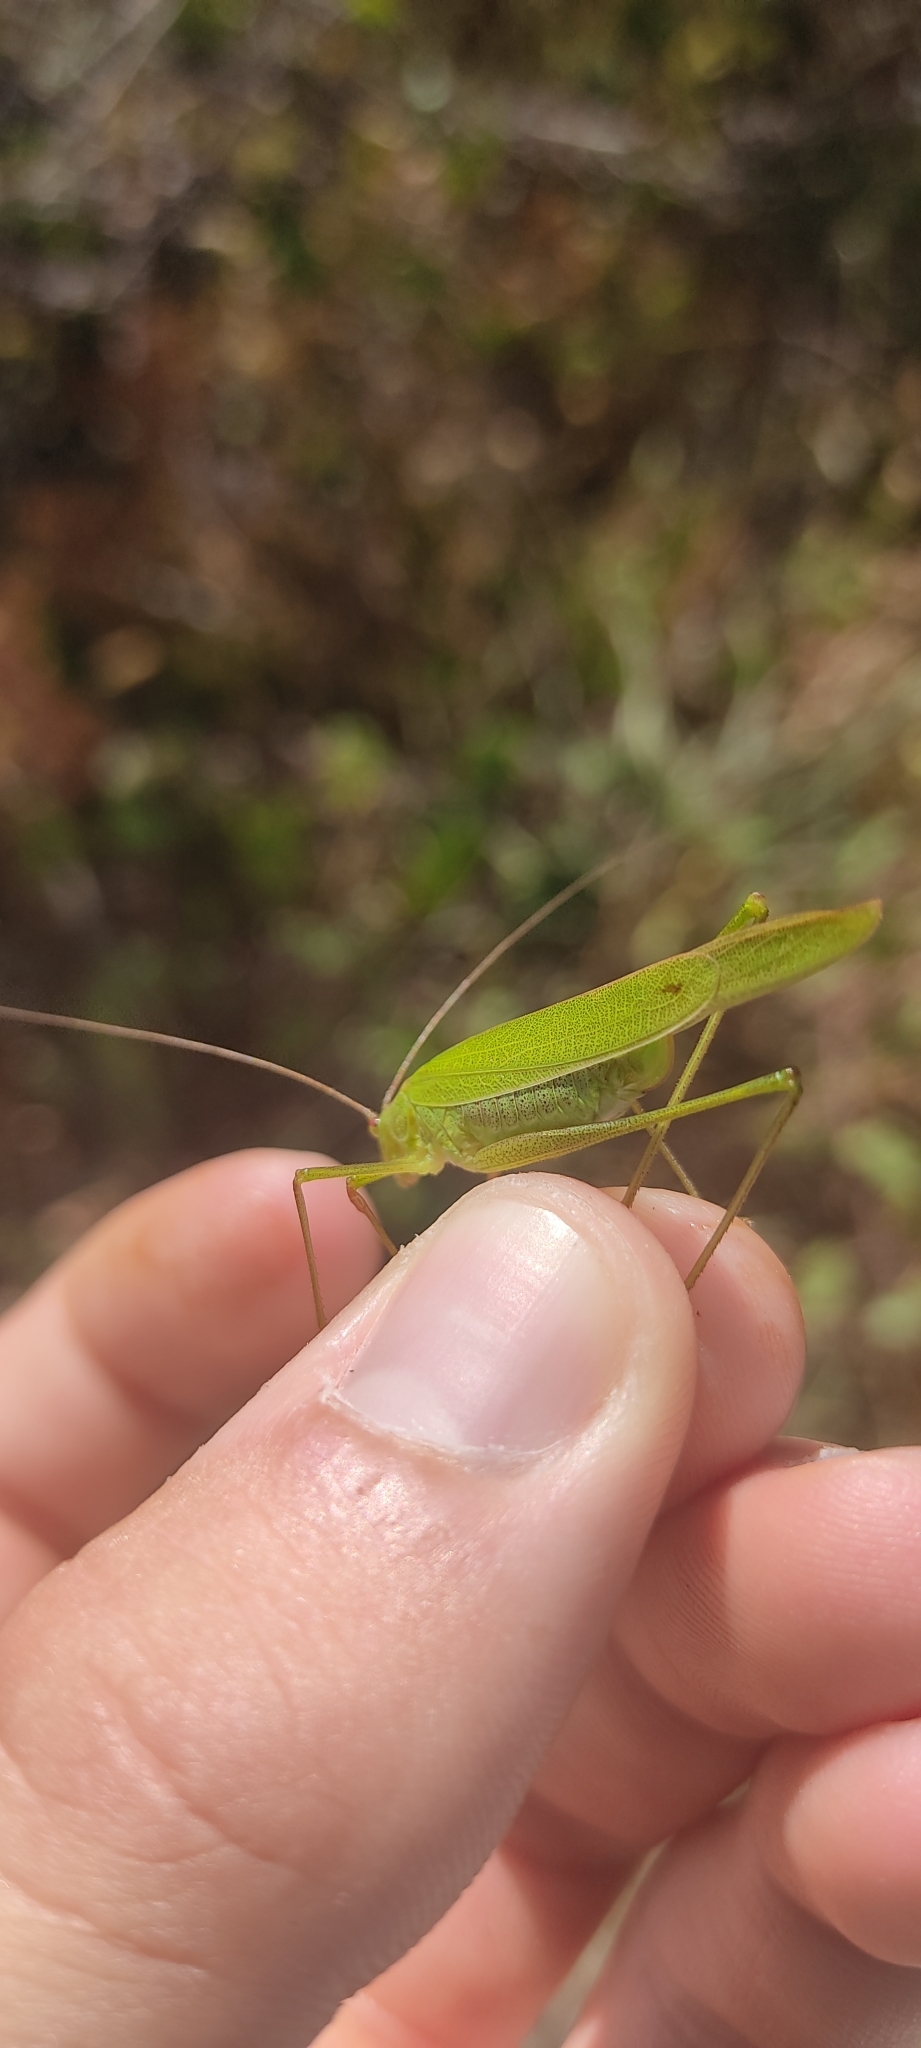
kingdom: Animalia
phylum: Arthropoda
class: Insecta
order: Orthoptera
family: Tettigoniidae
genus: Phaneroptera
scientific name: Phaneroptera falcata
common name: Sickle-bearing bush-cricket
